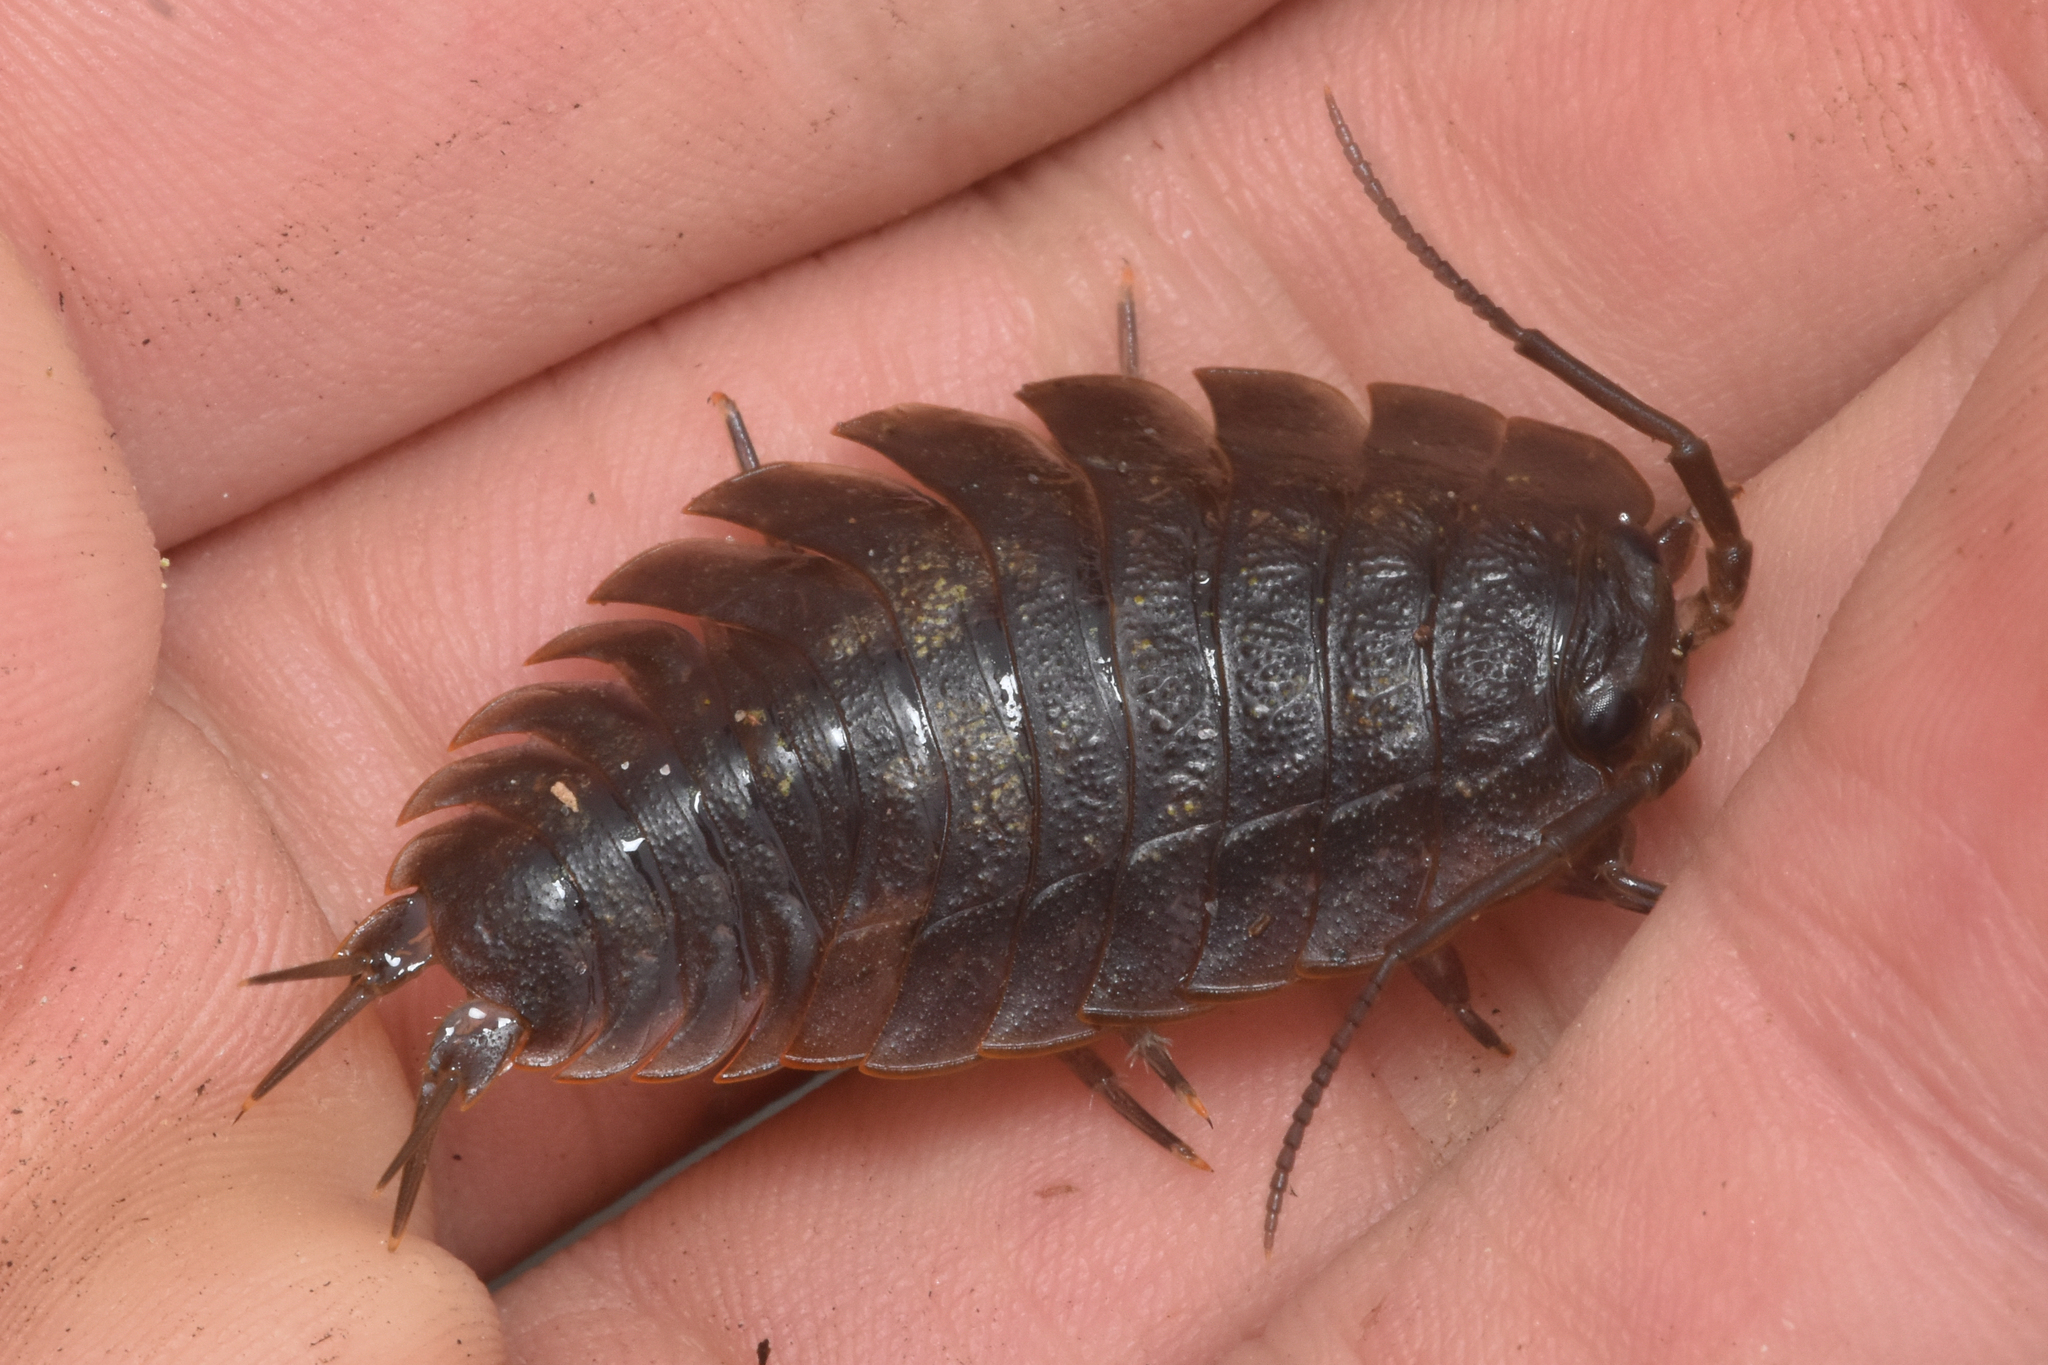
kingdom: Animalia
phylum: Arthropoda
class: Malacostraca
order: Isopoda
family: Ligiidae
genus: Ligia
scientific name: Ligia pallasii
